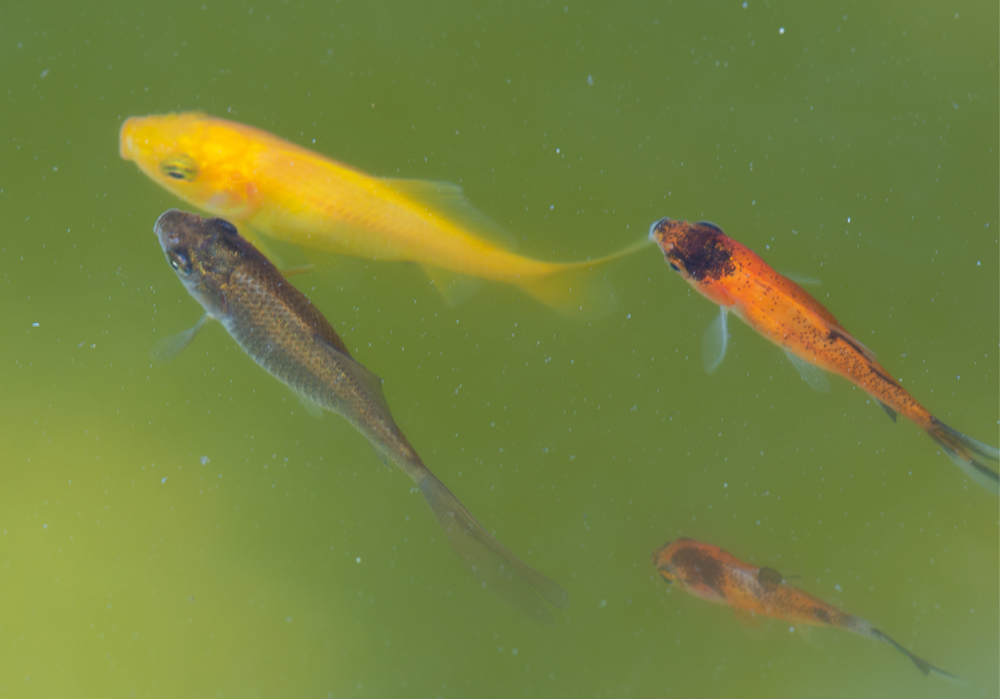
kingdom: Animalia
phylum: Chordata
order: Cypriniformes
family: Cyprinidae
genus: Carassius
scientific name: Carassius auratus
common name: Goldfish
